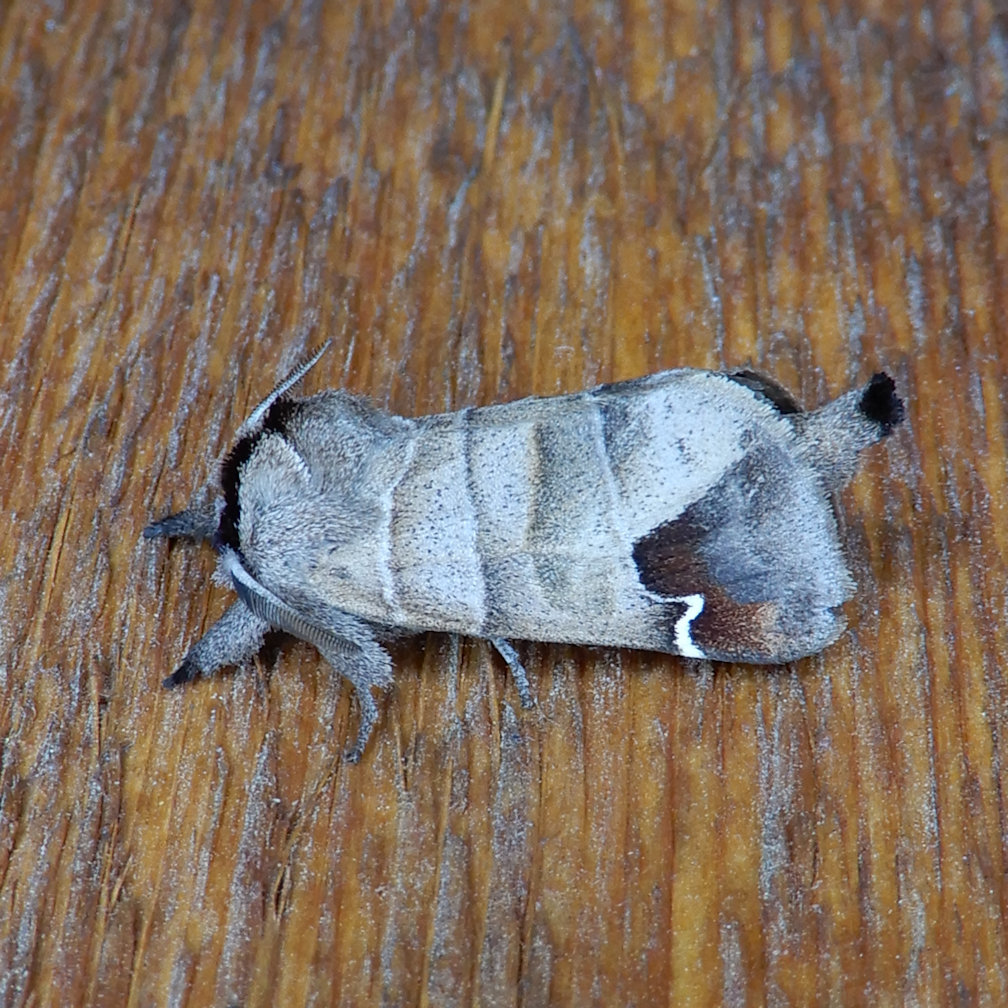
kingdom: Animalia
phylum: Arthropoda
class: Insecta
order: Lepidoptera
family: Notodontidae
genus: Clostera
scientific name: Clostera albosigma
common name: Sigmoid prominent
